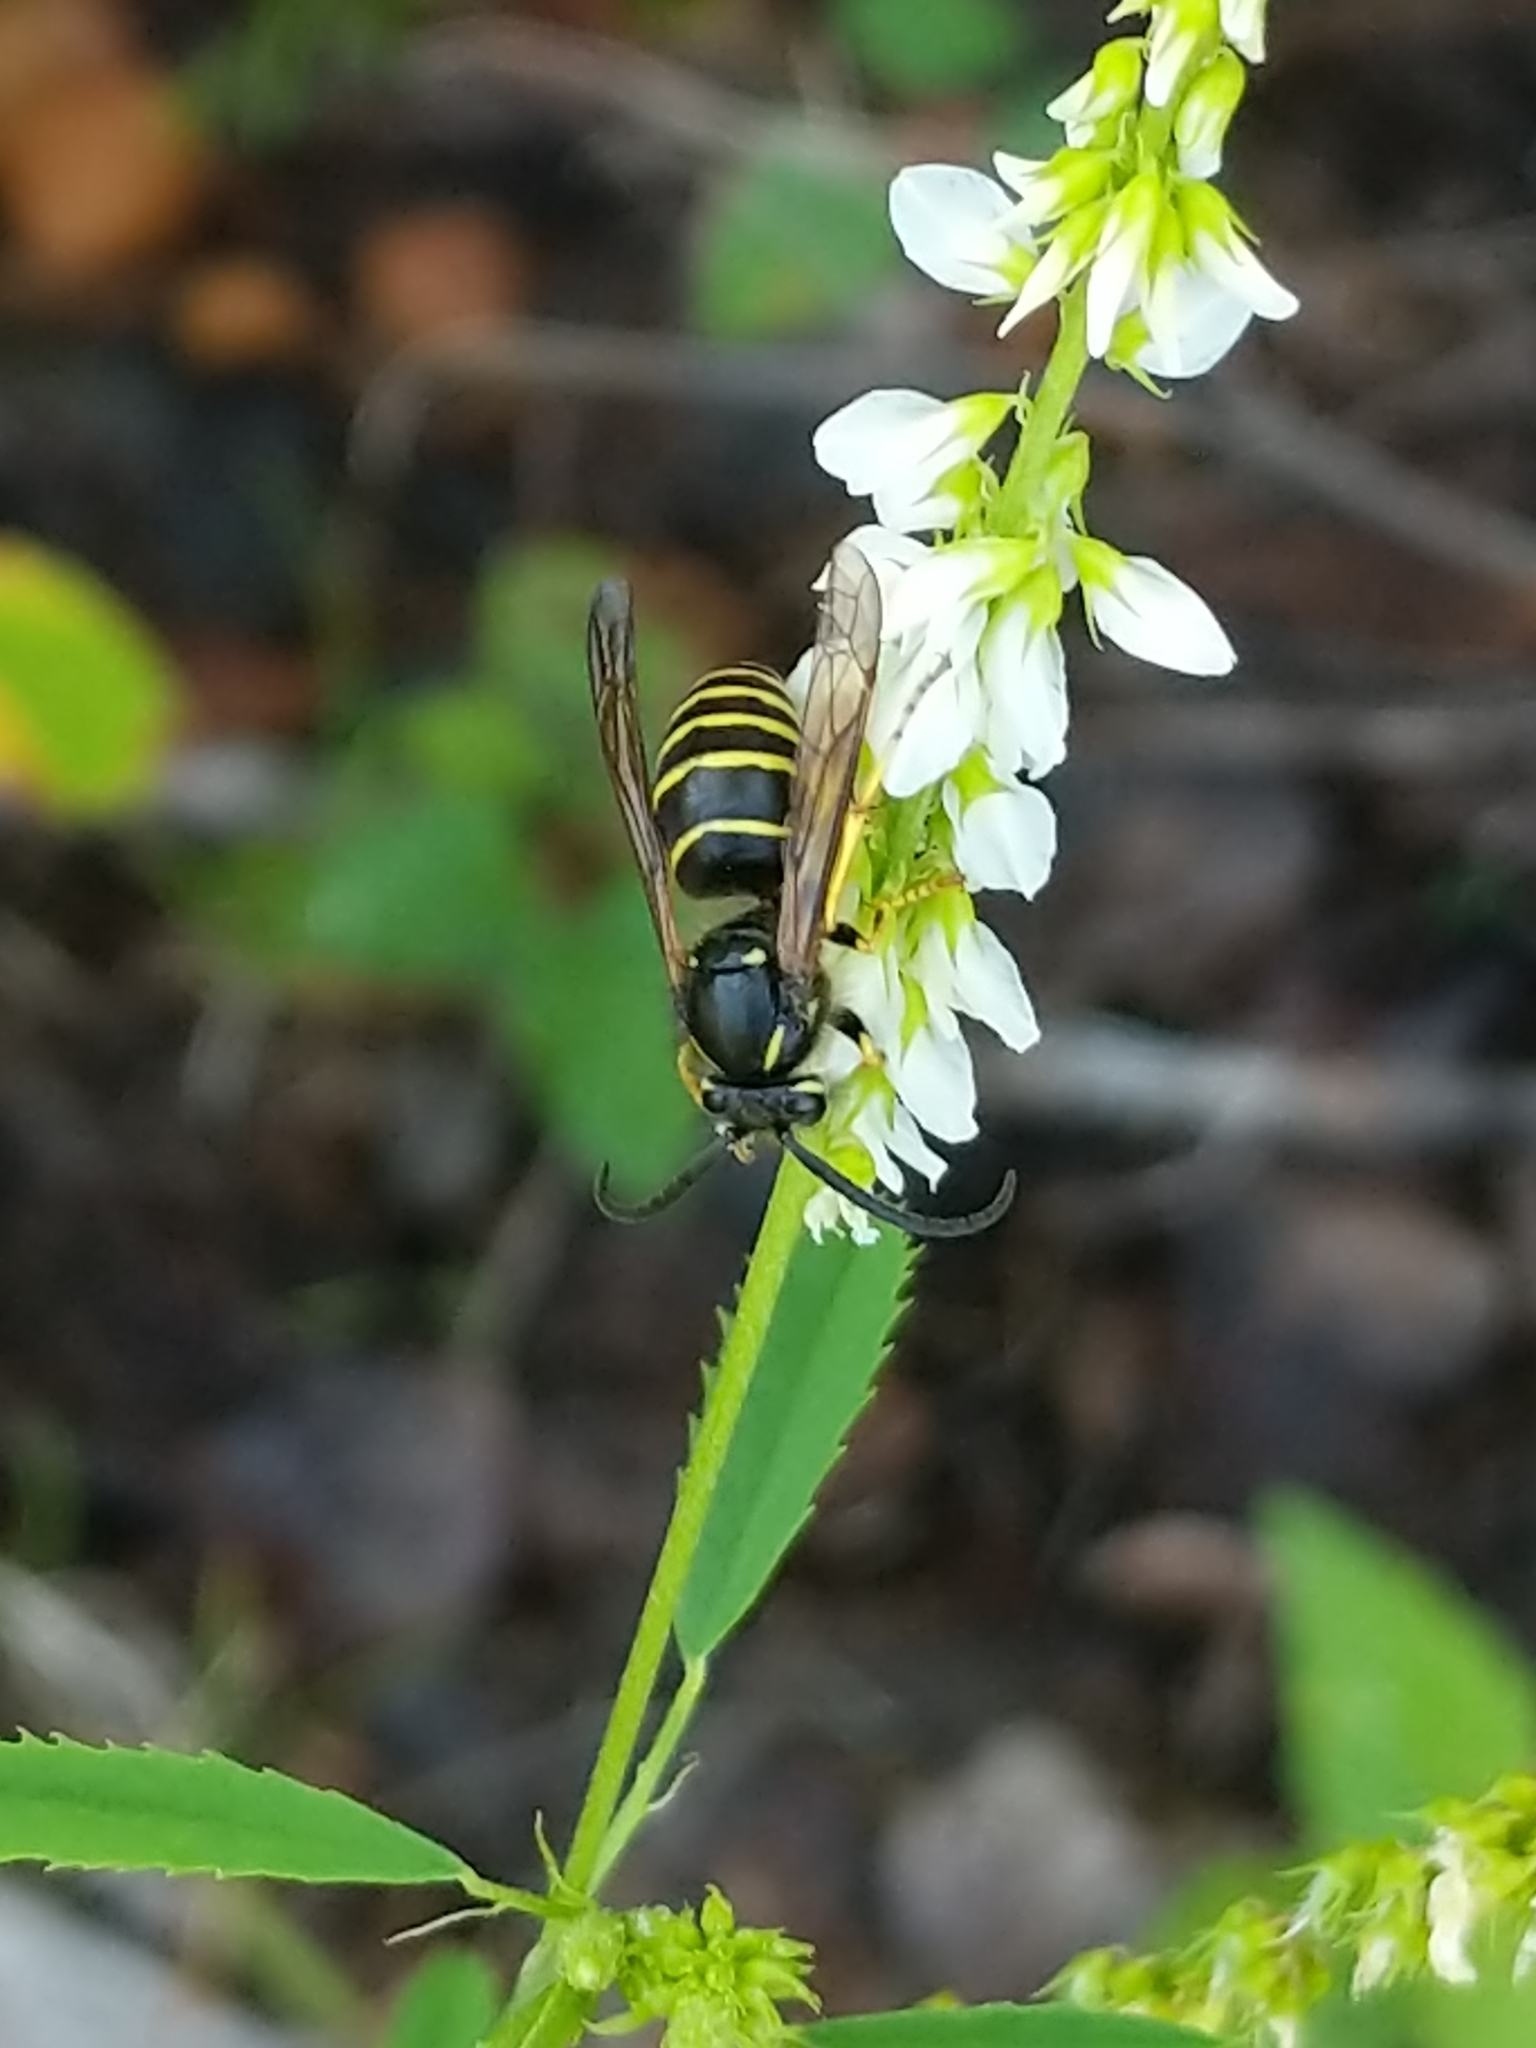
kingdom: Animalia
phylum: Arthropoda
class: Insecta
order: Hymenoptera
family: Vespidae
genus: Dolichovespula
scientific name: Dolichovespula norvegicoides
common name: Northern aerial yellowjacket
